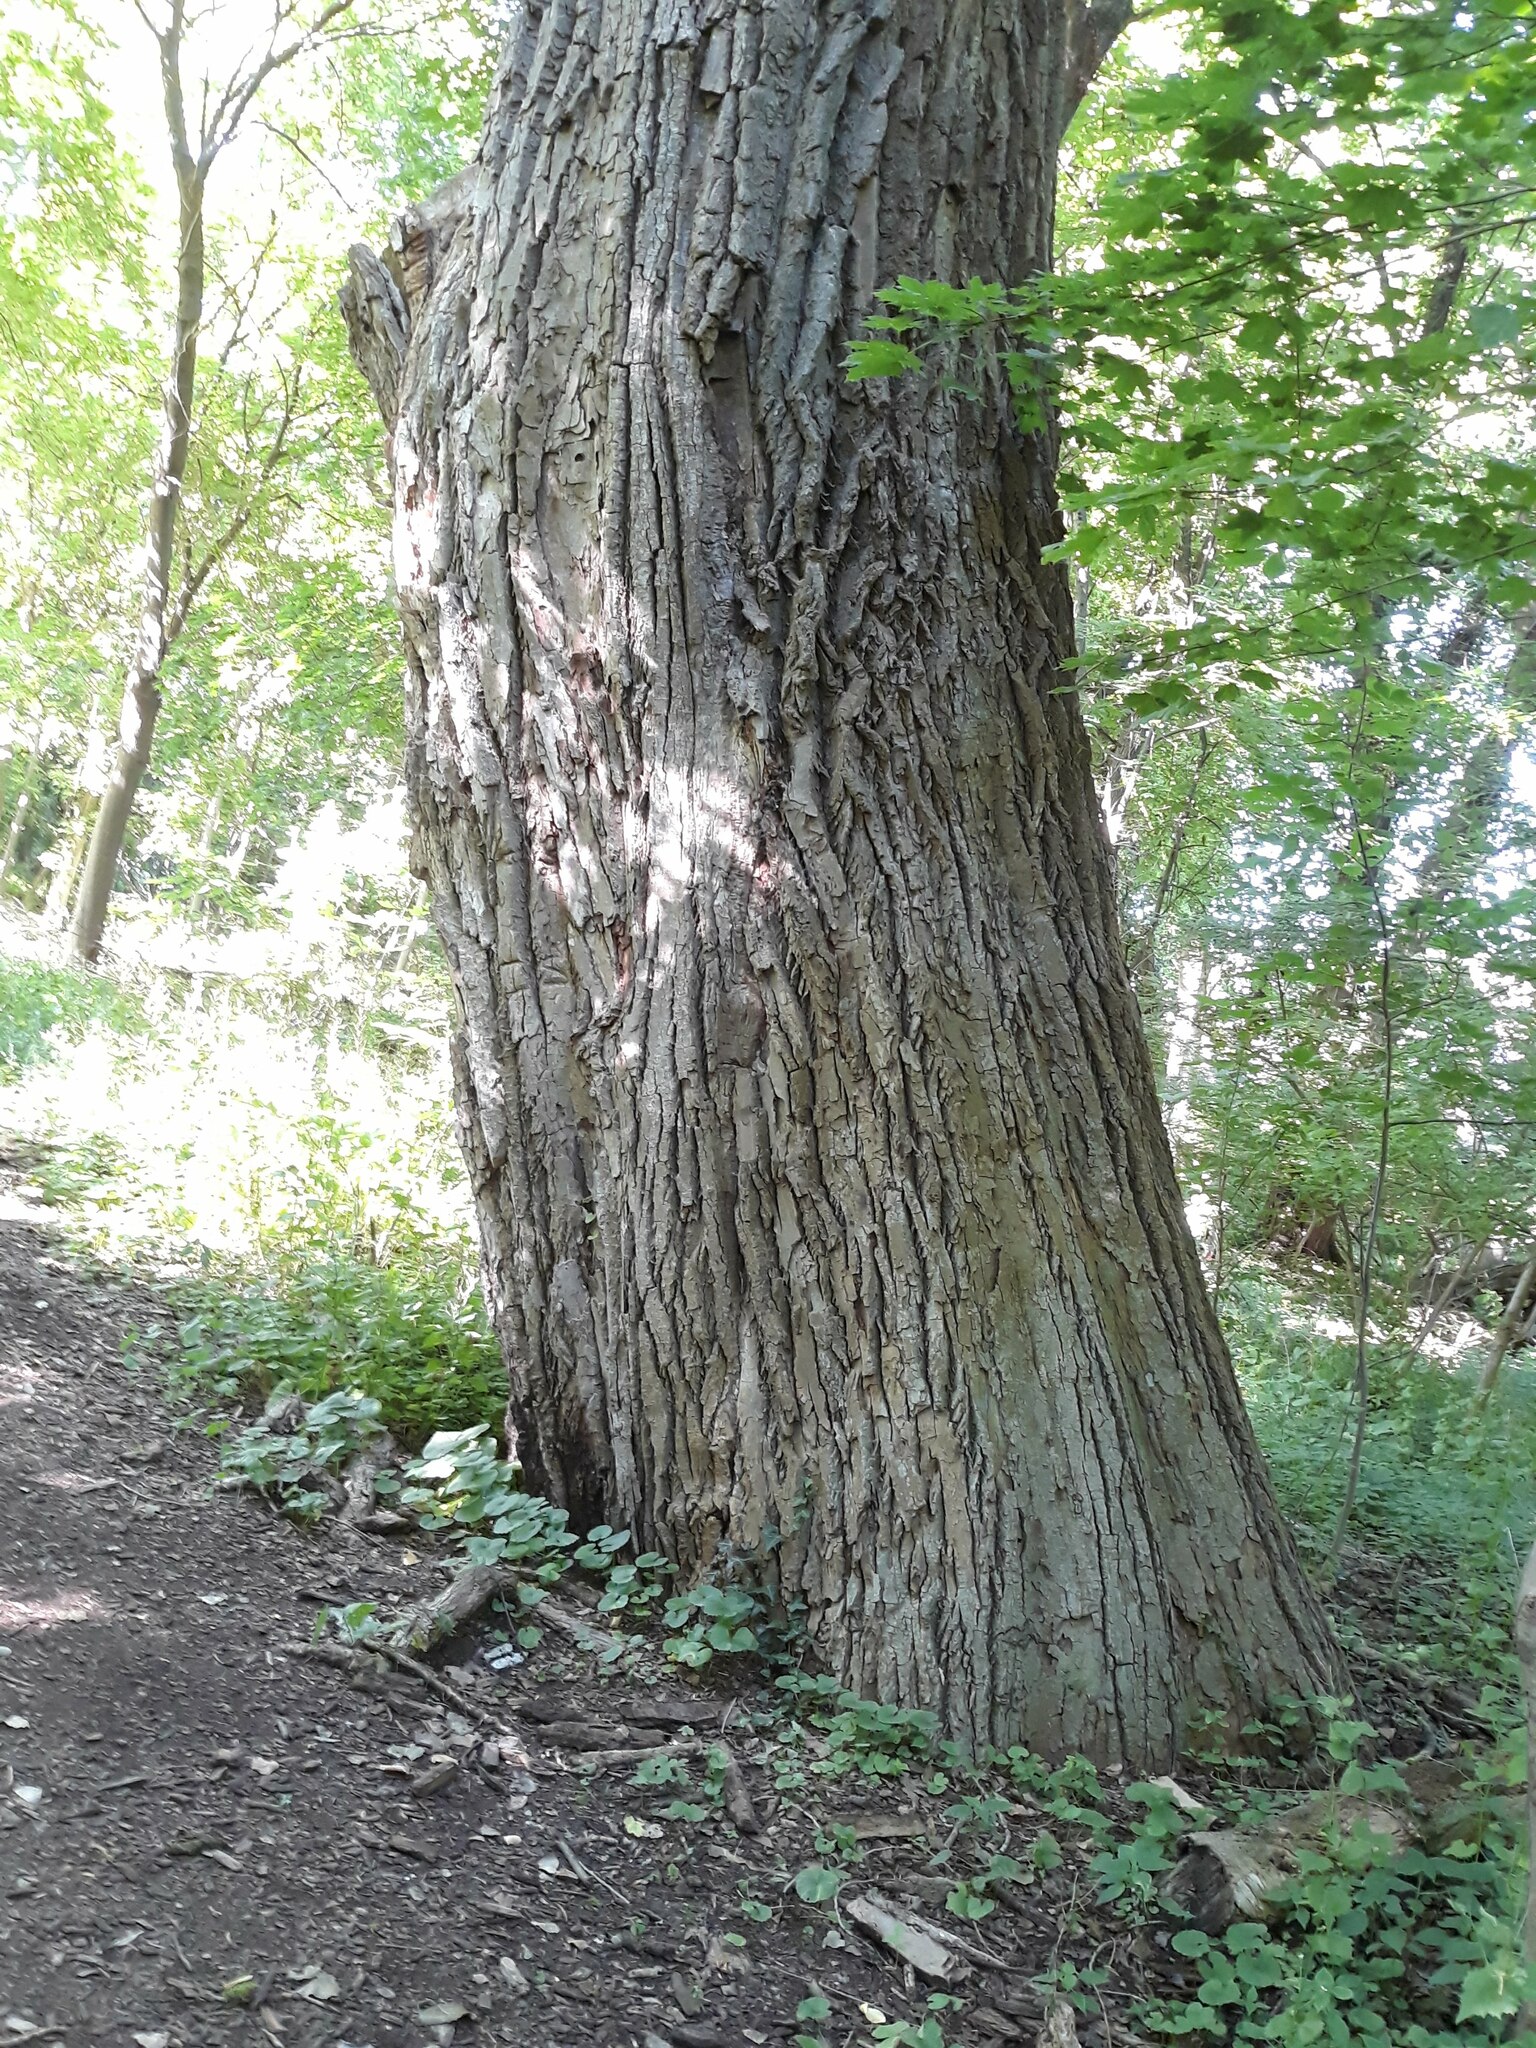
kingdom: Plantae
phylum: Tracheophyta
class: Magnoliopsida
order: Malpighiales
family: Salicaceae
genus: Populus
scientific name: Populus deltoides
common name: Eastern cottonwood
